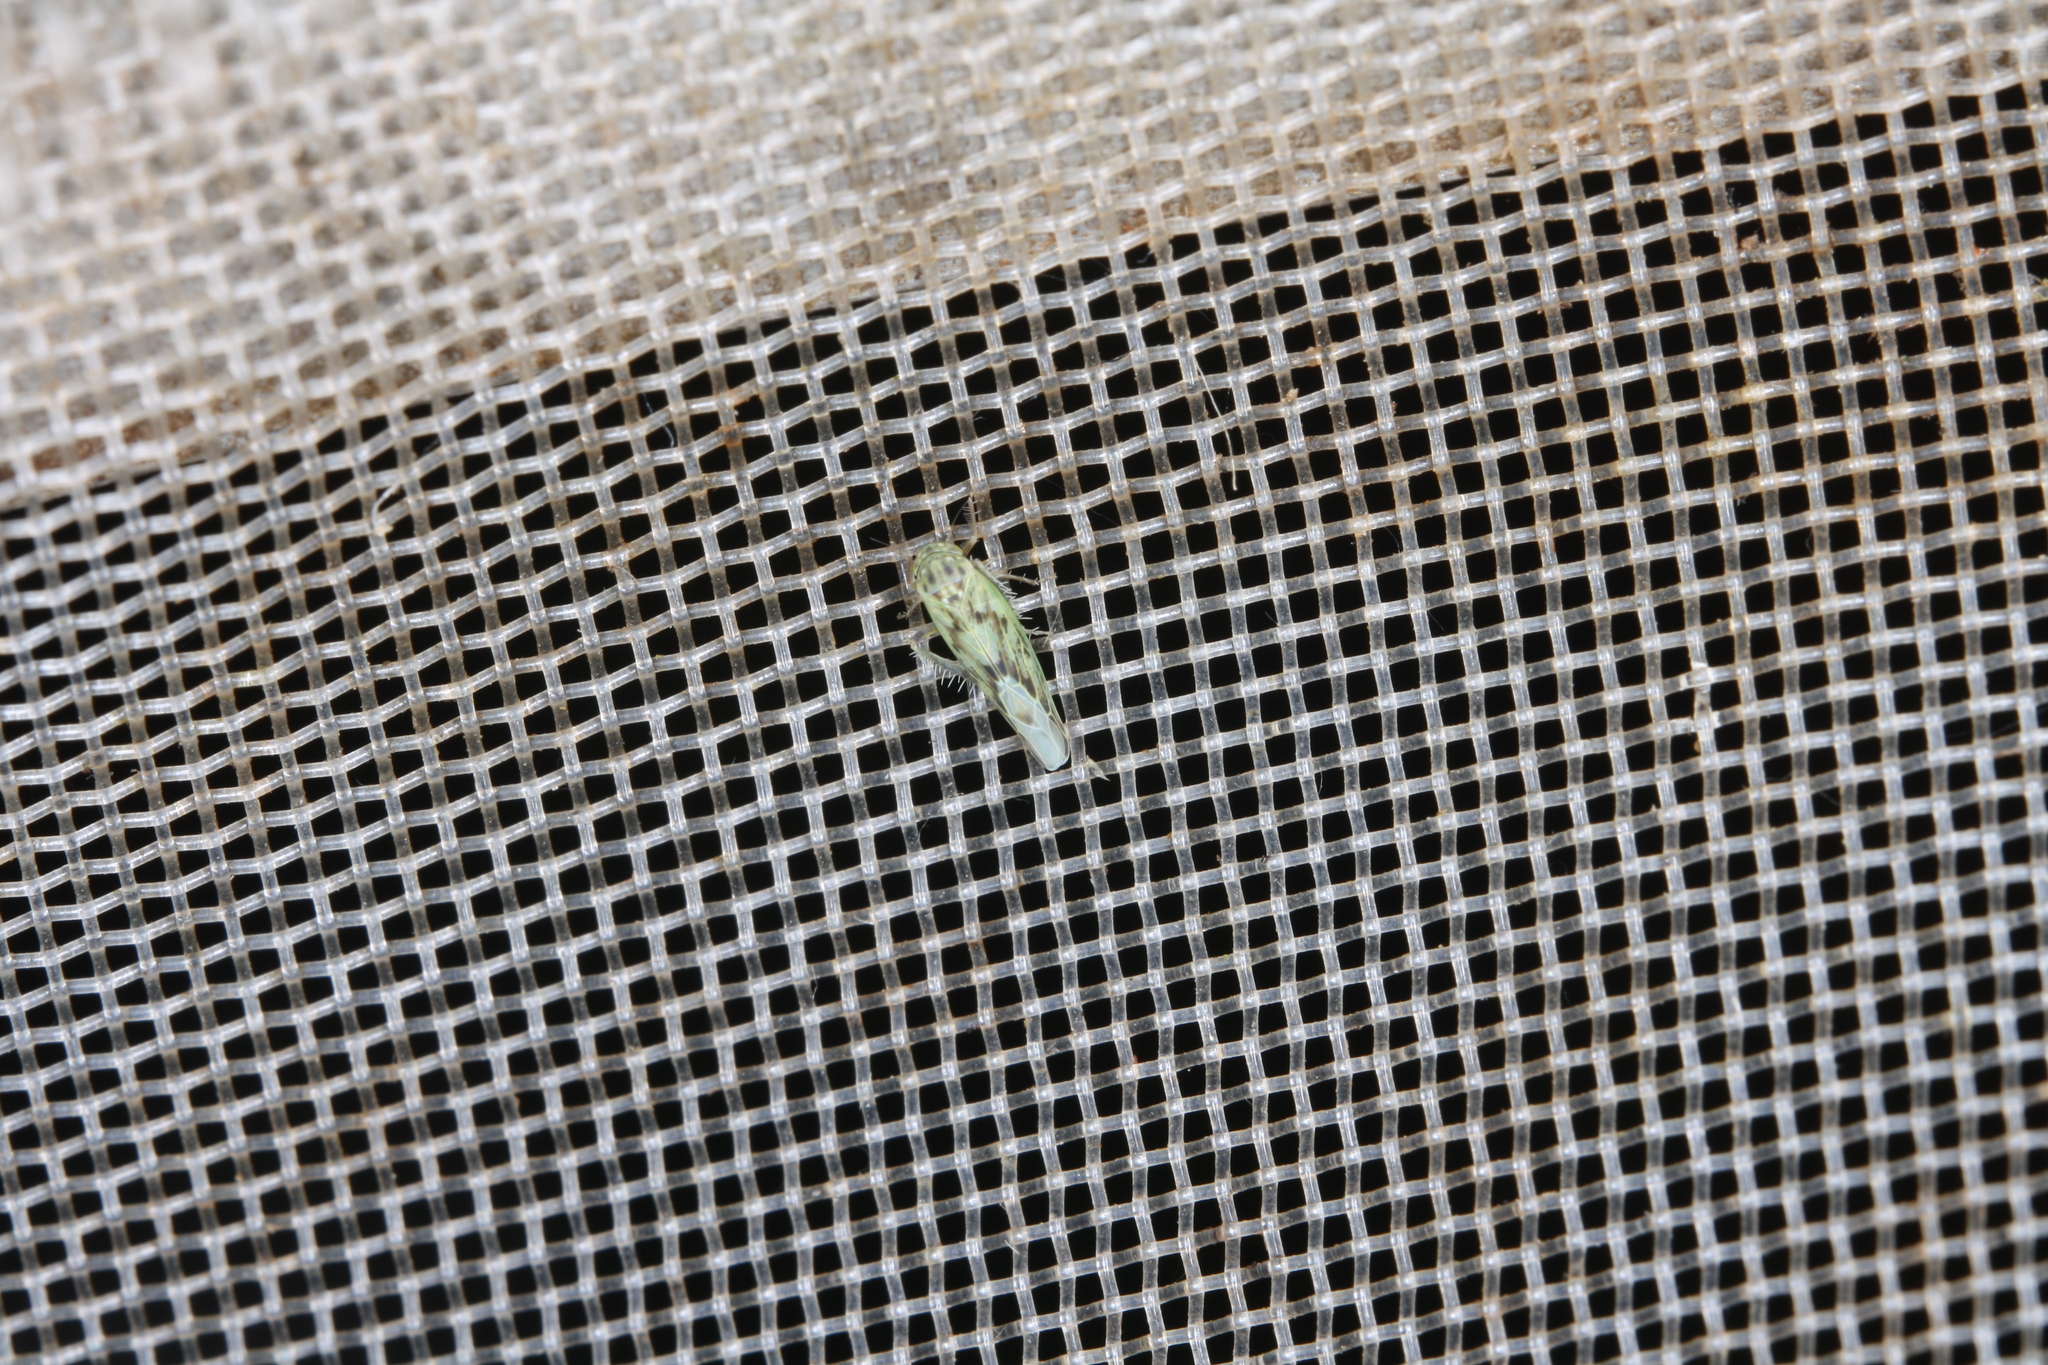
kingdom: Animalia
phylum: Arthropoda
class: Insecta
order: Hemiptera
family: Cicadellidae
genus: Balclutha
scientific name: Balclutha punctata
